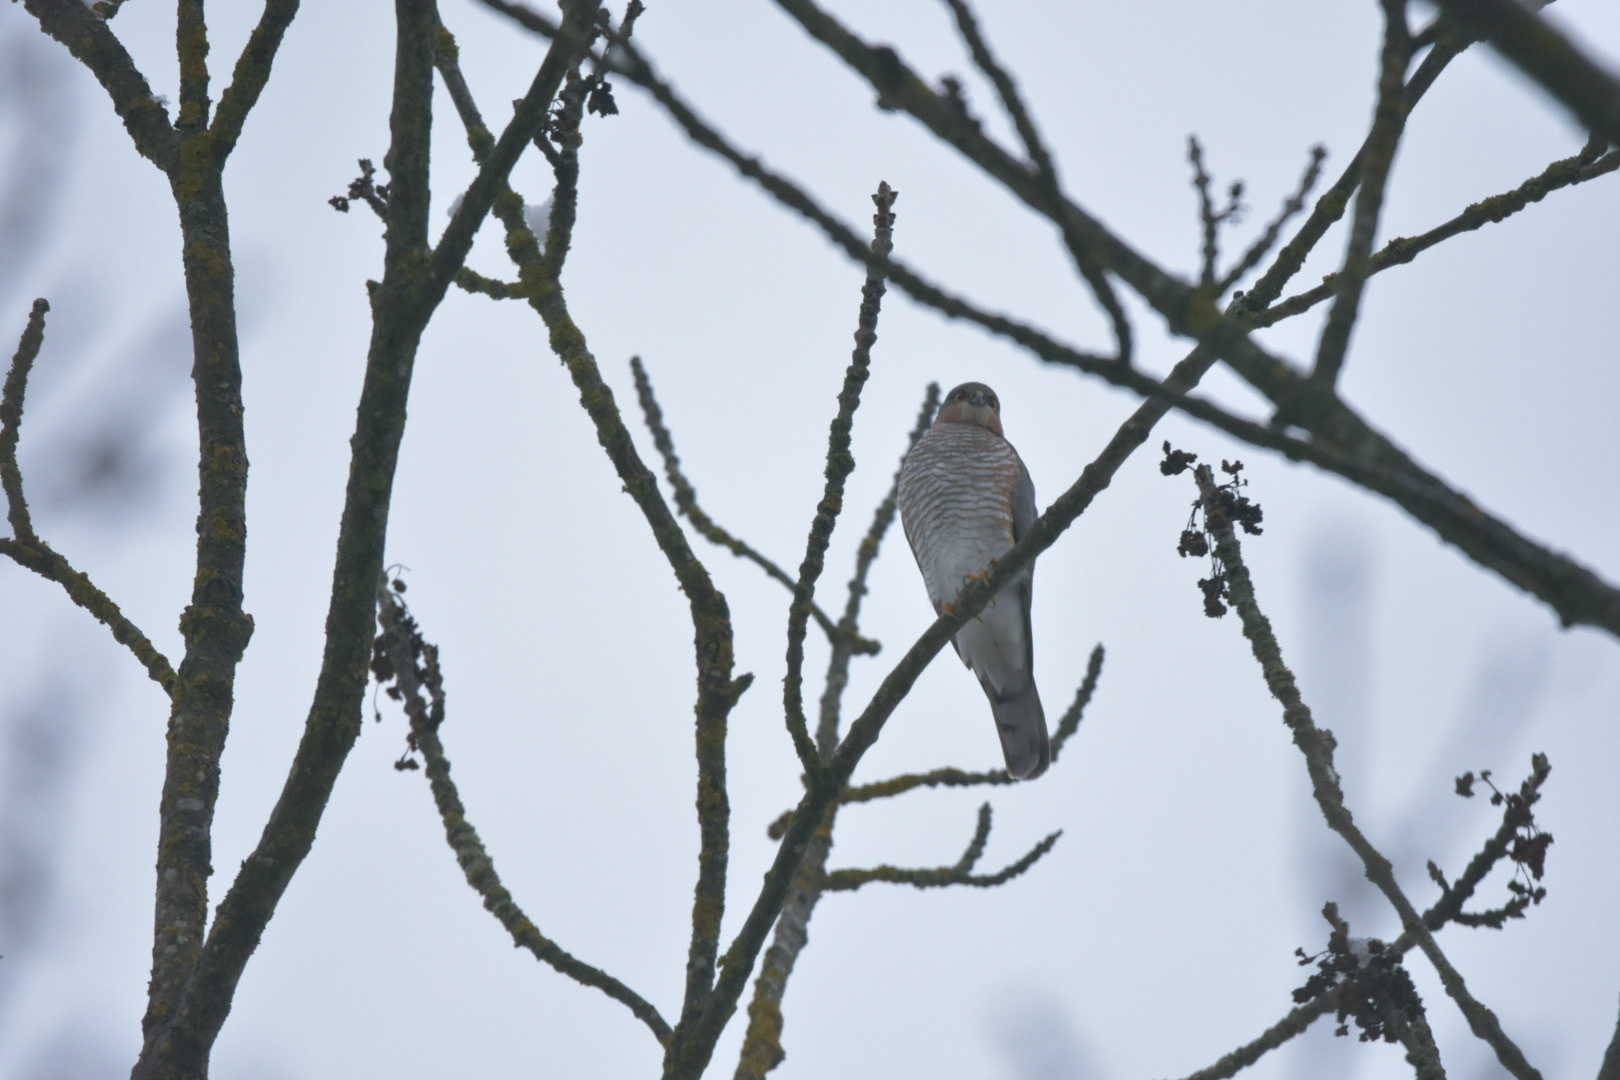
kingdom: Animalia
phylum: Chordata
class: Aves
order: Accipitriformes
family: Accipitridae
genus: Accipiter
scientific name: Accipiter nisus
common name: Eurasian sparrowhawk
